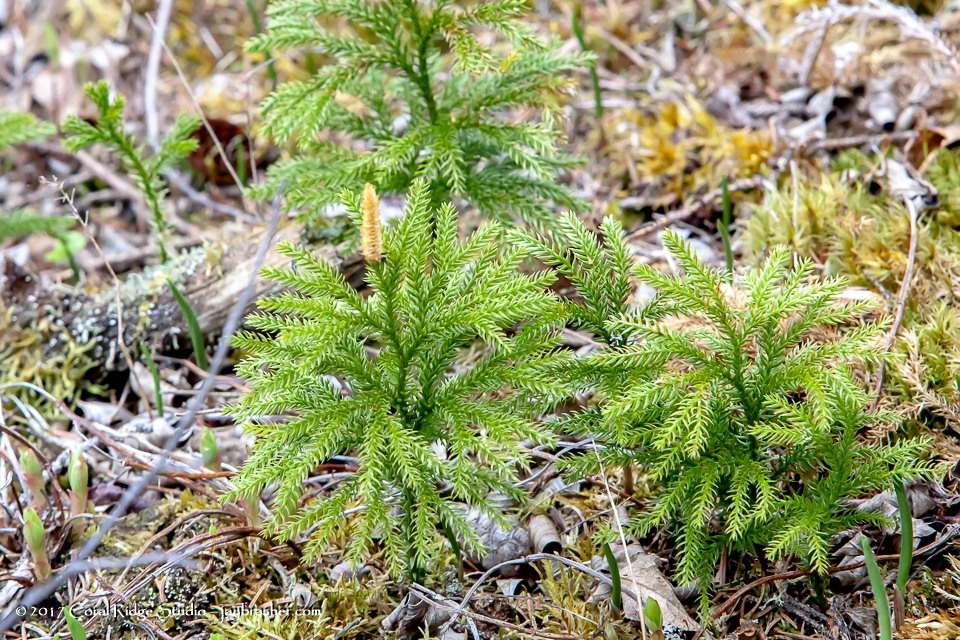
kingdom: Plantae
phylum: Tracheophyta
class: Lycopodiopsida
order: Lycopodiales
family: Lycopodiaceae
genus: Dendrolycopodium
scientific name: Dendrolycopodium hickeyi
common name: Hickey's clubmoss
